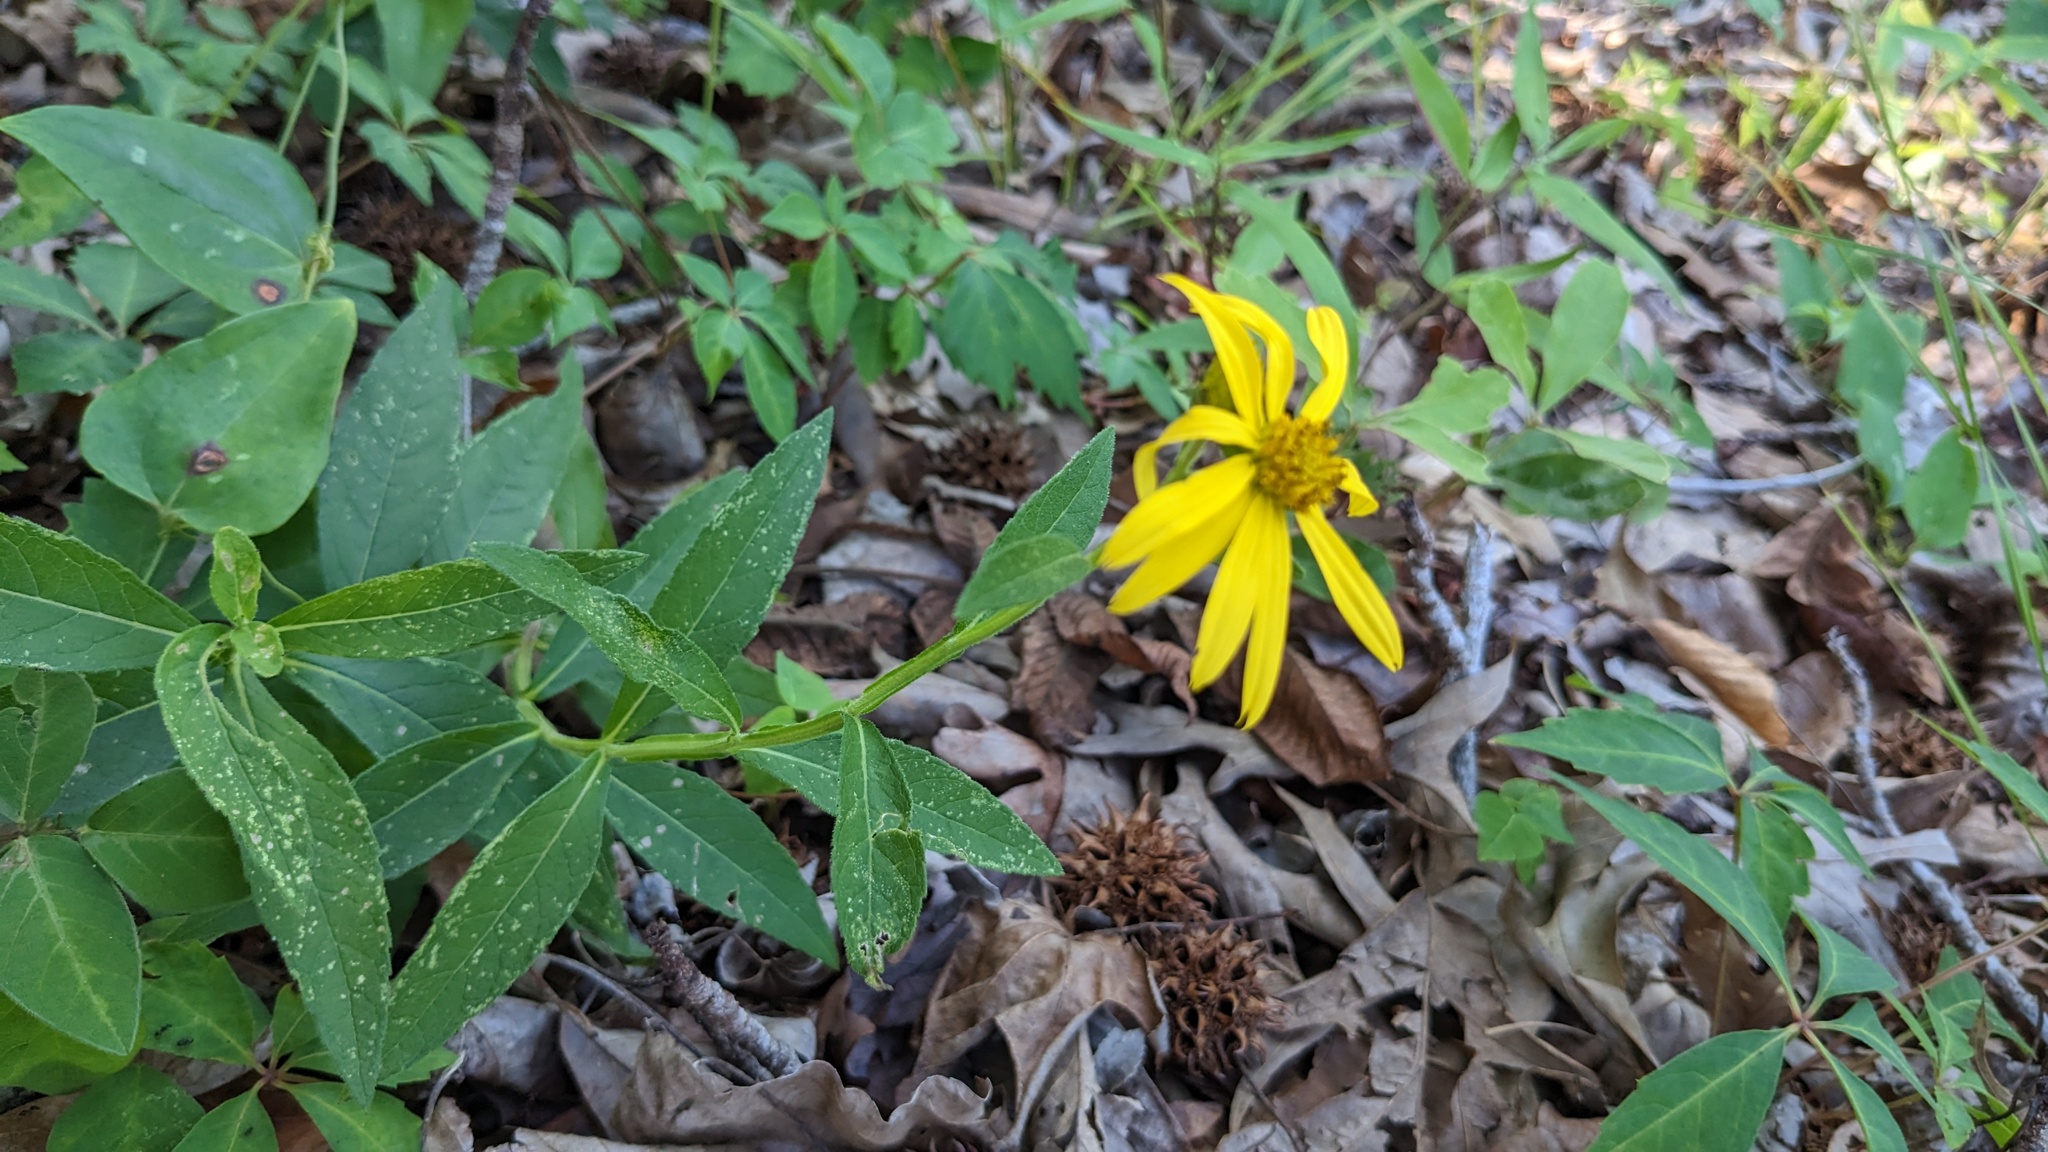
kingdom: Plantae
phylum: Tracheophyta
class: Magnoliopsida
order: Asterales
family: Asteraceae
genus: Verbesina
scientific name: Verbesina helianthoides
